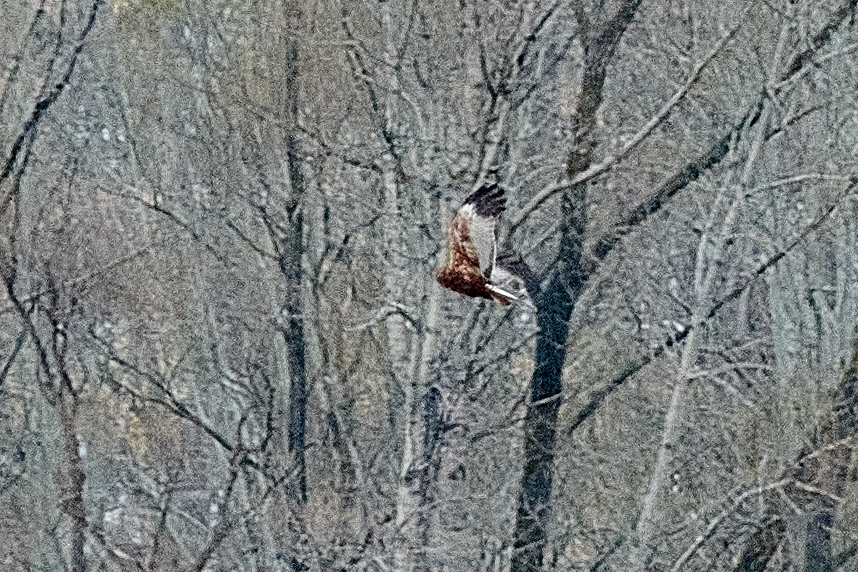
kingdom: Animalia
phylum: Chordata
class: Aves
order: Accipitriformes
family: Accipitridae
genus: Circus
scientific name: Circus aeruginosus
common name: Western marsh harrier
